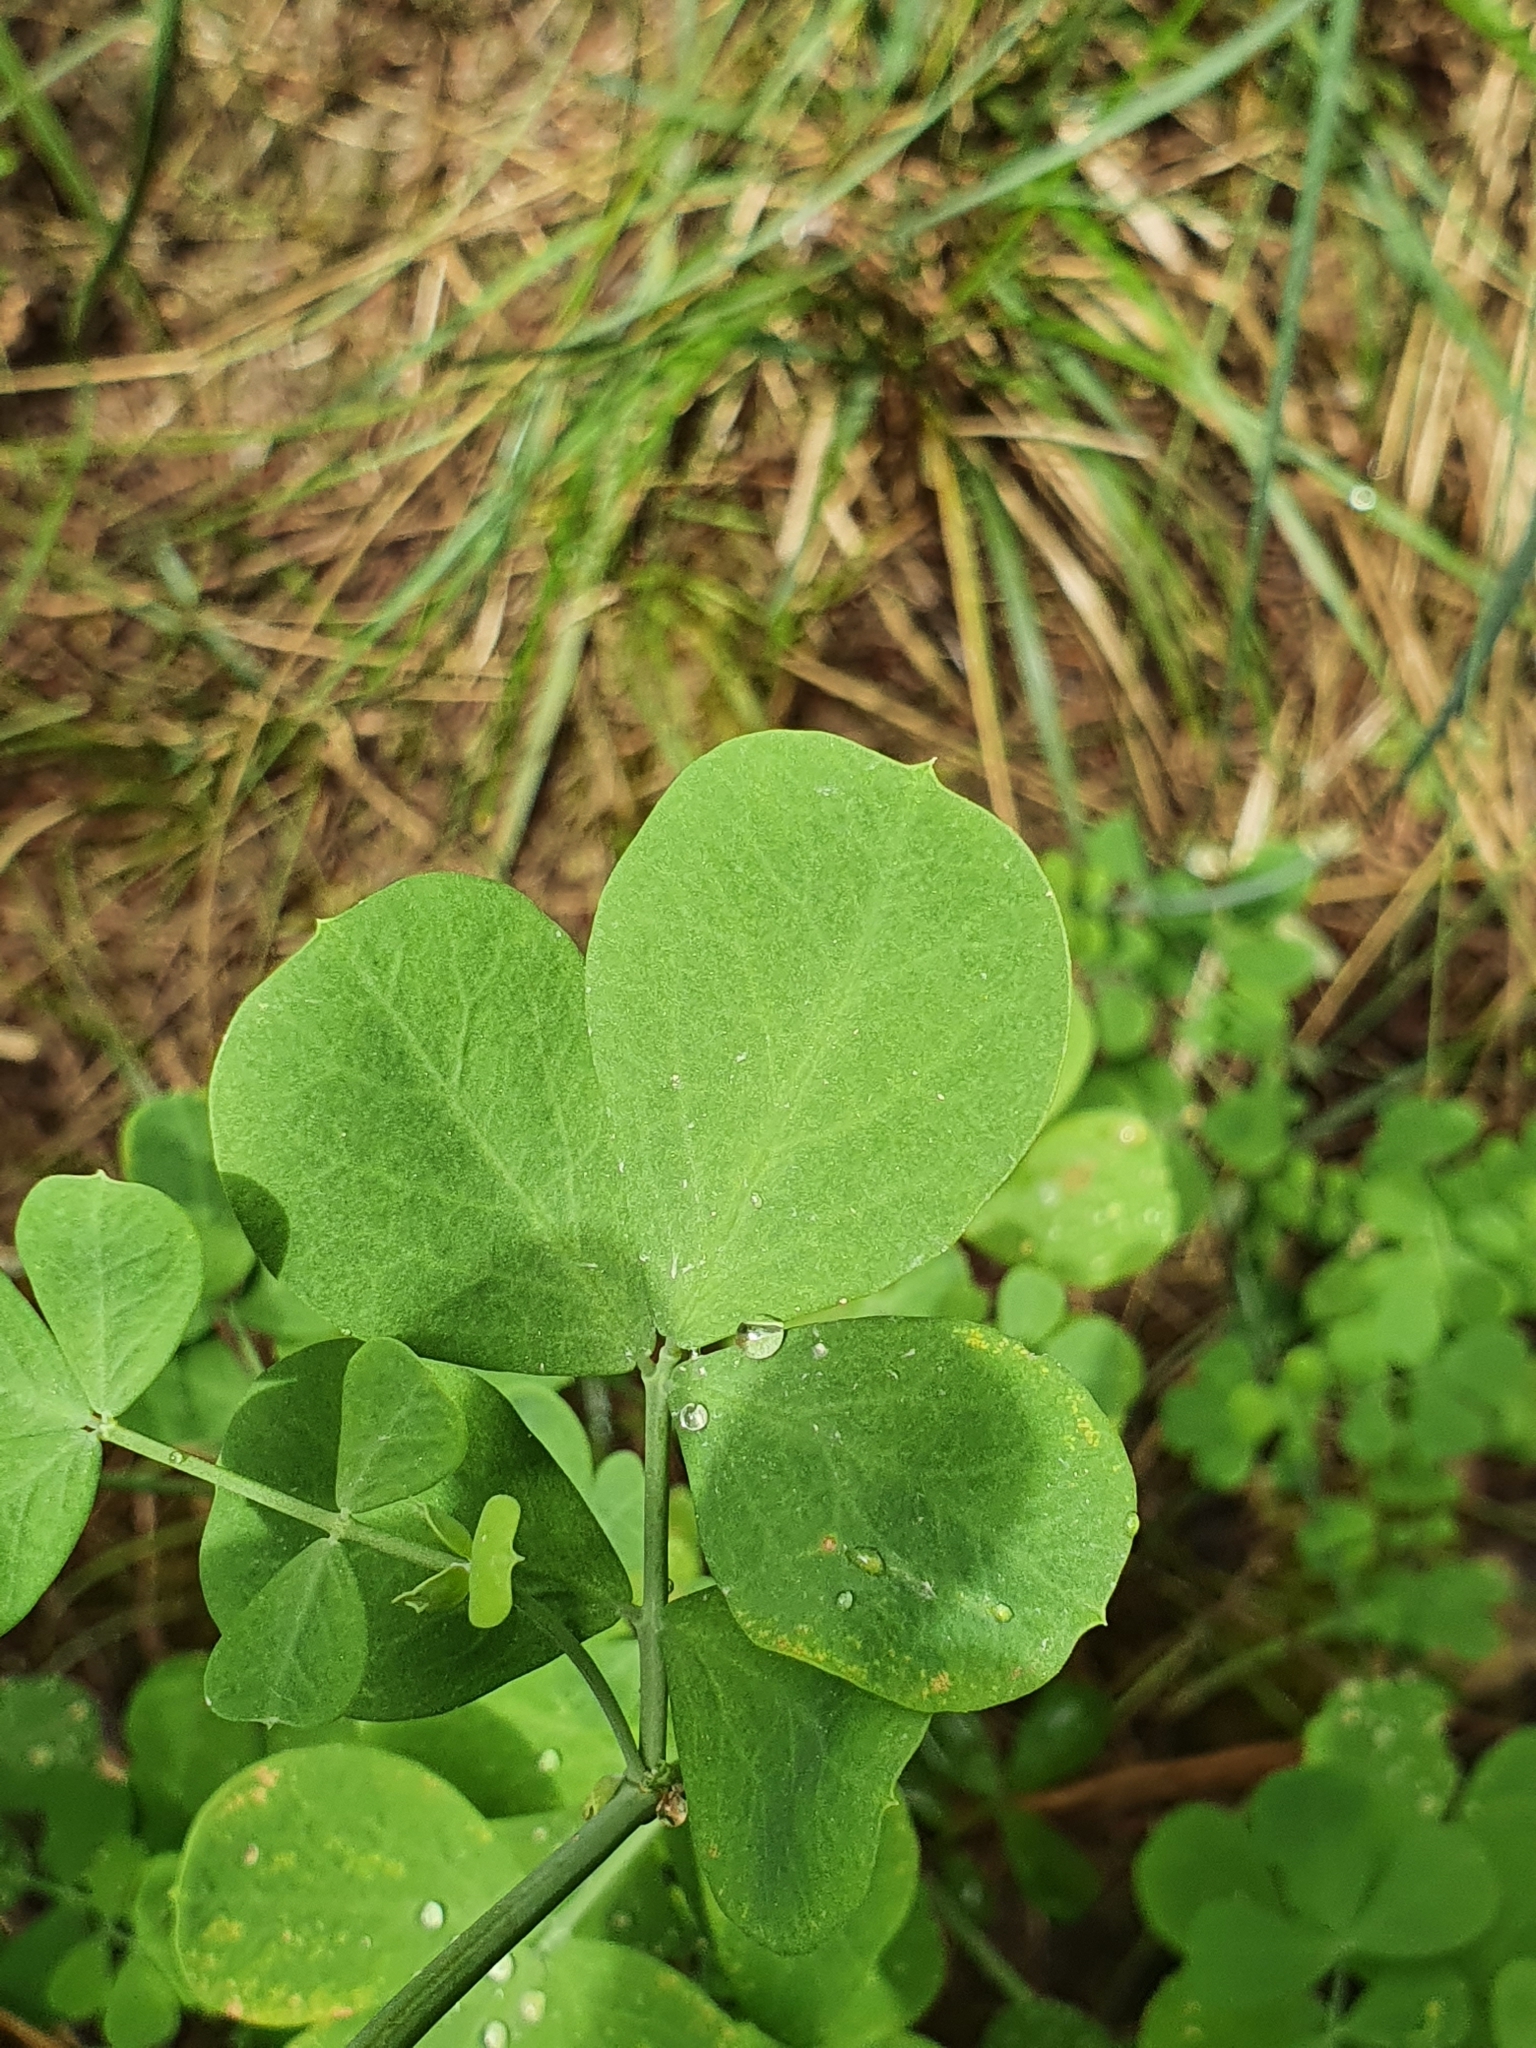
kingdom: Plantae
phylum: Tracheophyta
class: Magnoliopsida
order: Fabales
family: Fabaceae
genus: Coronilla
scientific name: Coronilla valentina
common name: Shrubby scorpion-vetch
